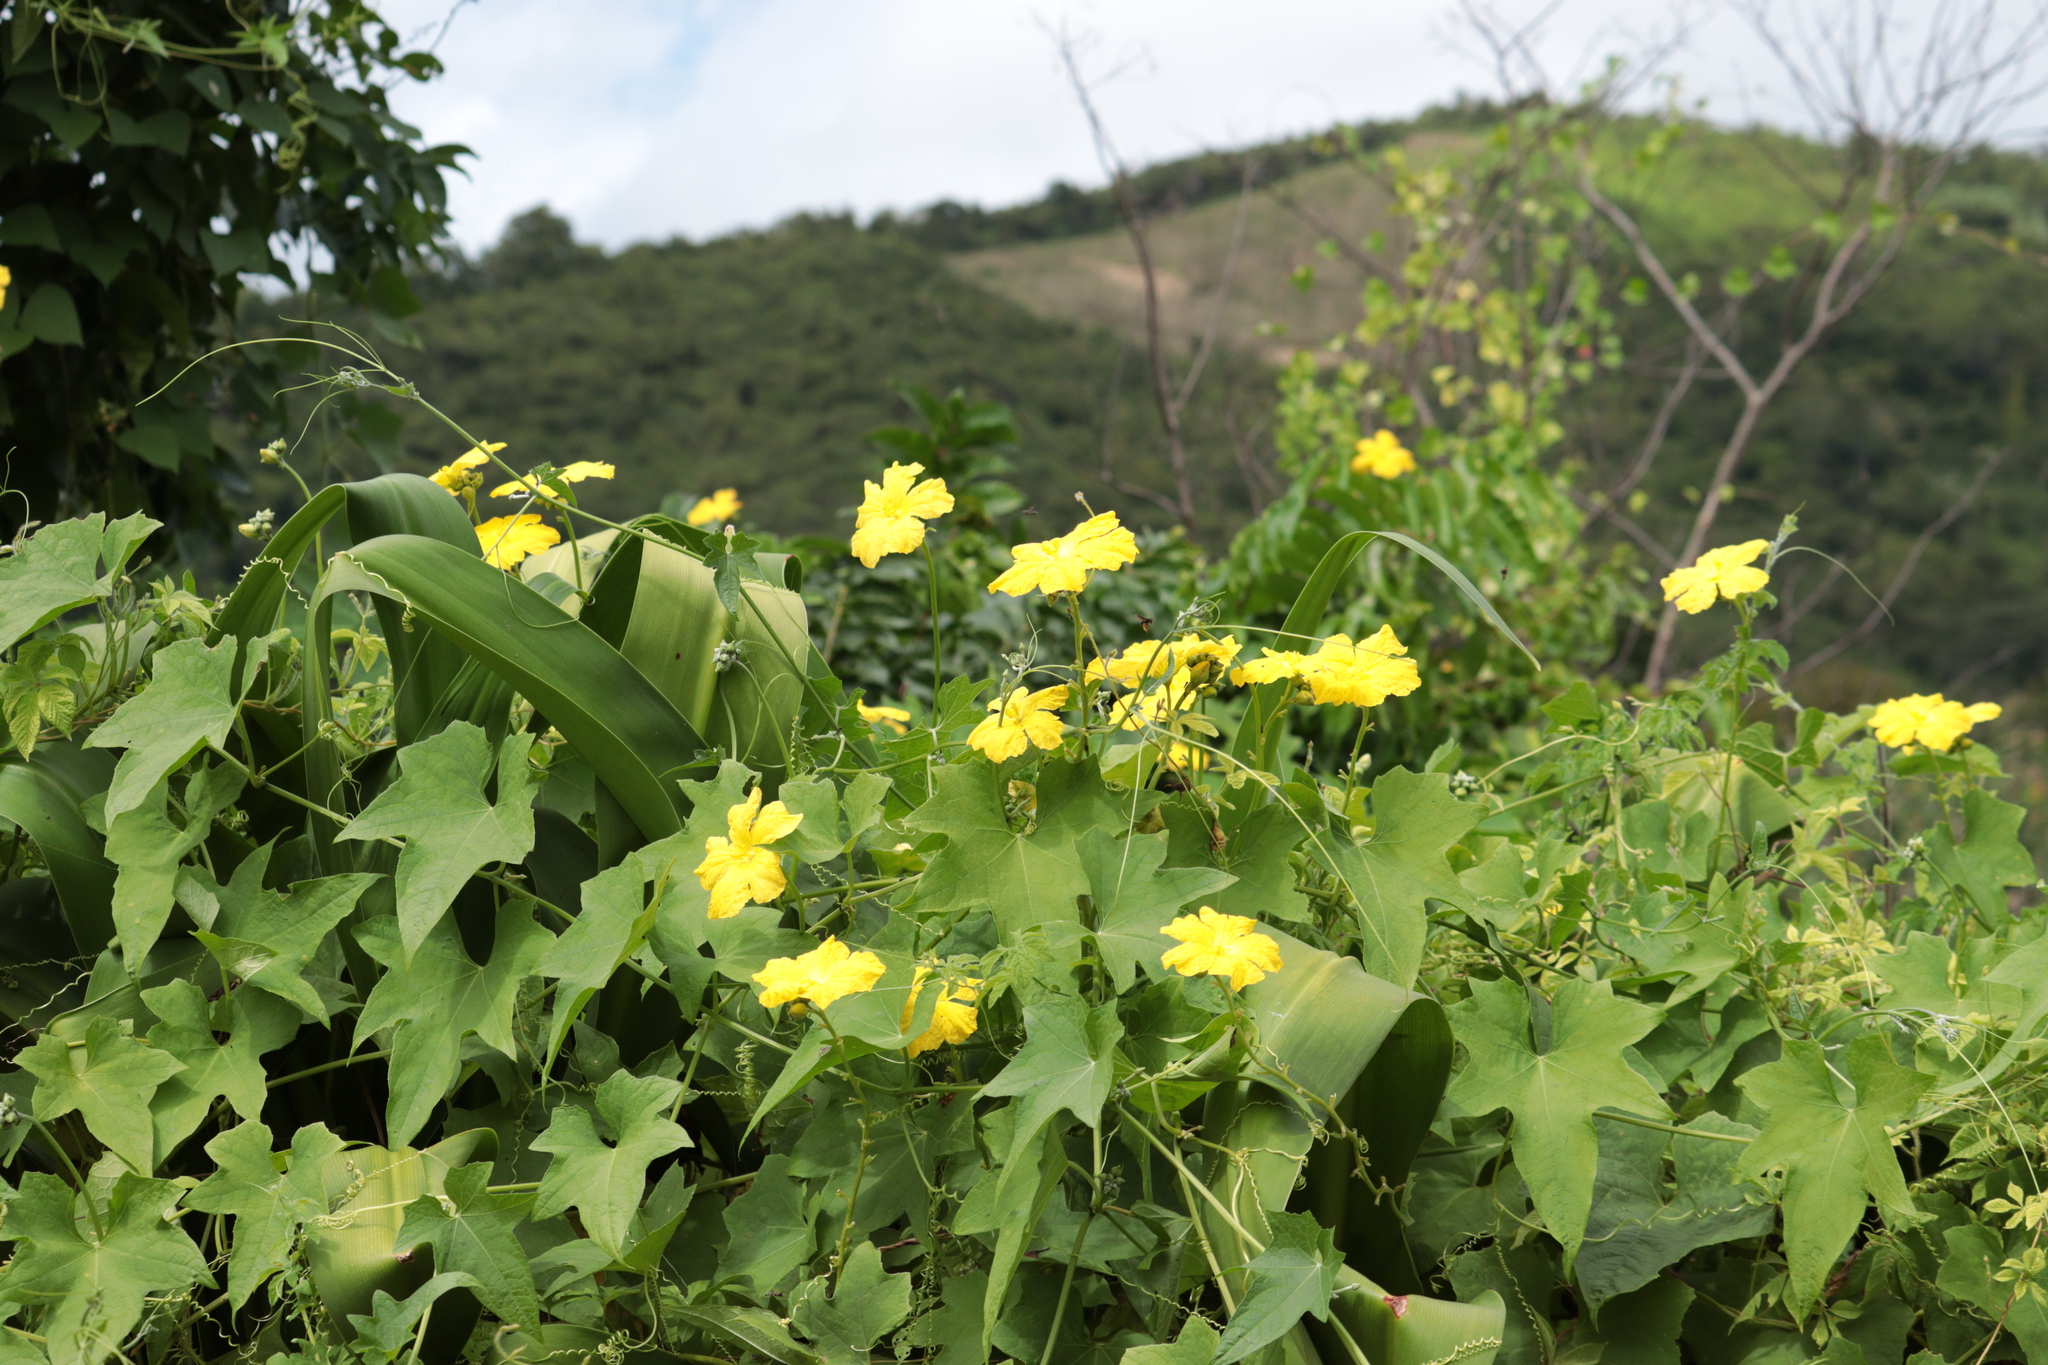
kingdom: Plantae
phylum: Tracheophyta
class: Magnoliopsida
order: Cucurbitales
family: Cucurbitaceae
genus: Luffa
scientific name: Luffa aegyptiaca
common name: Sponge gourd
